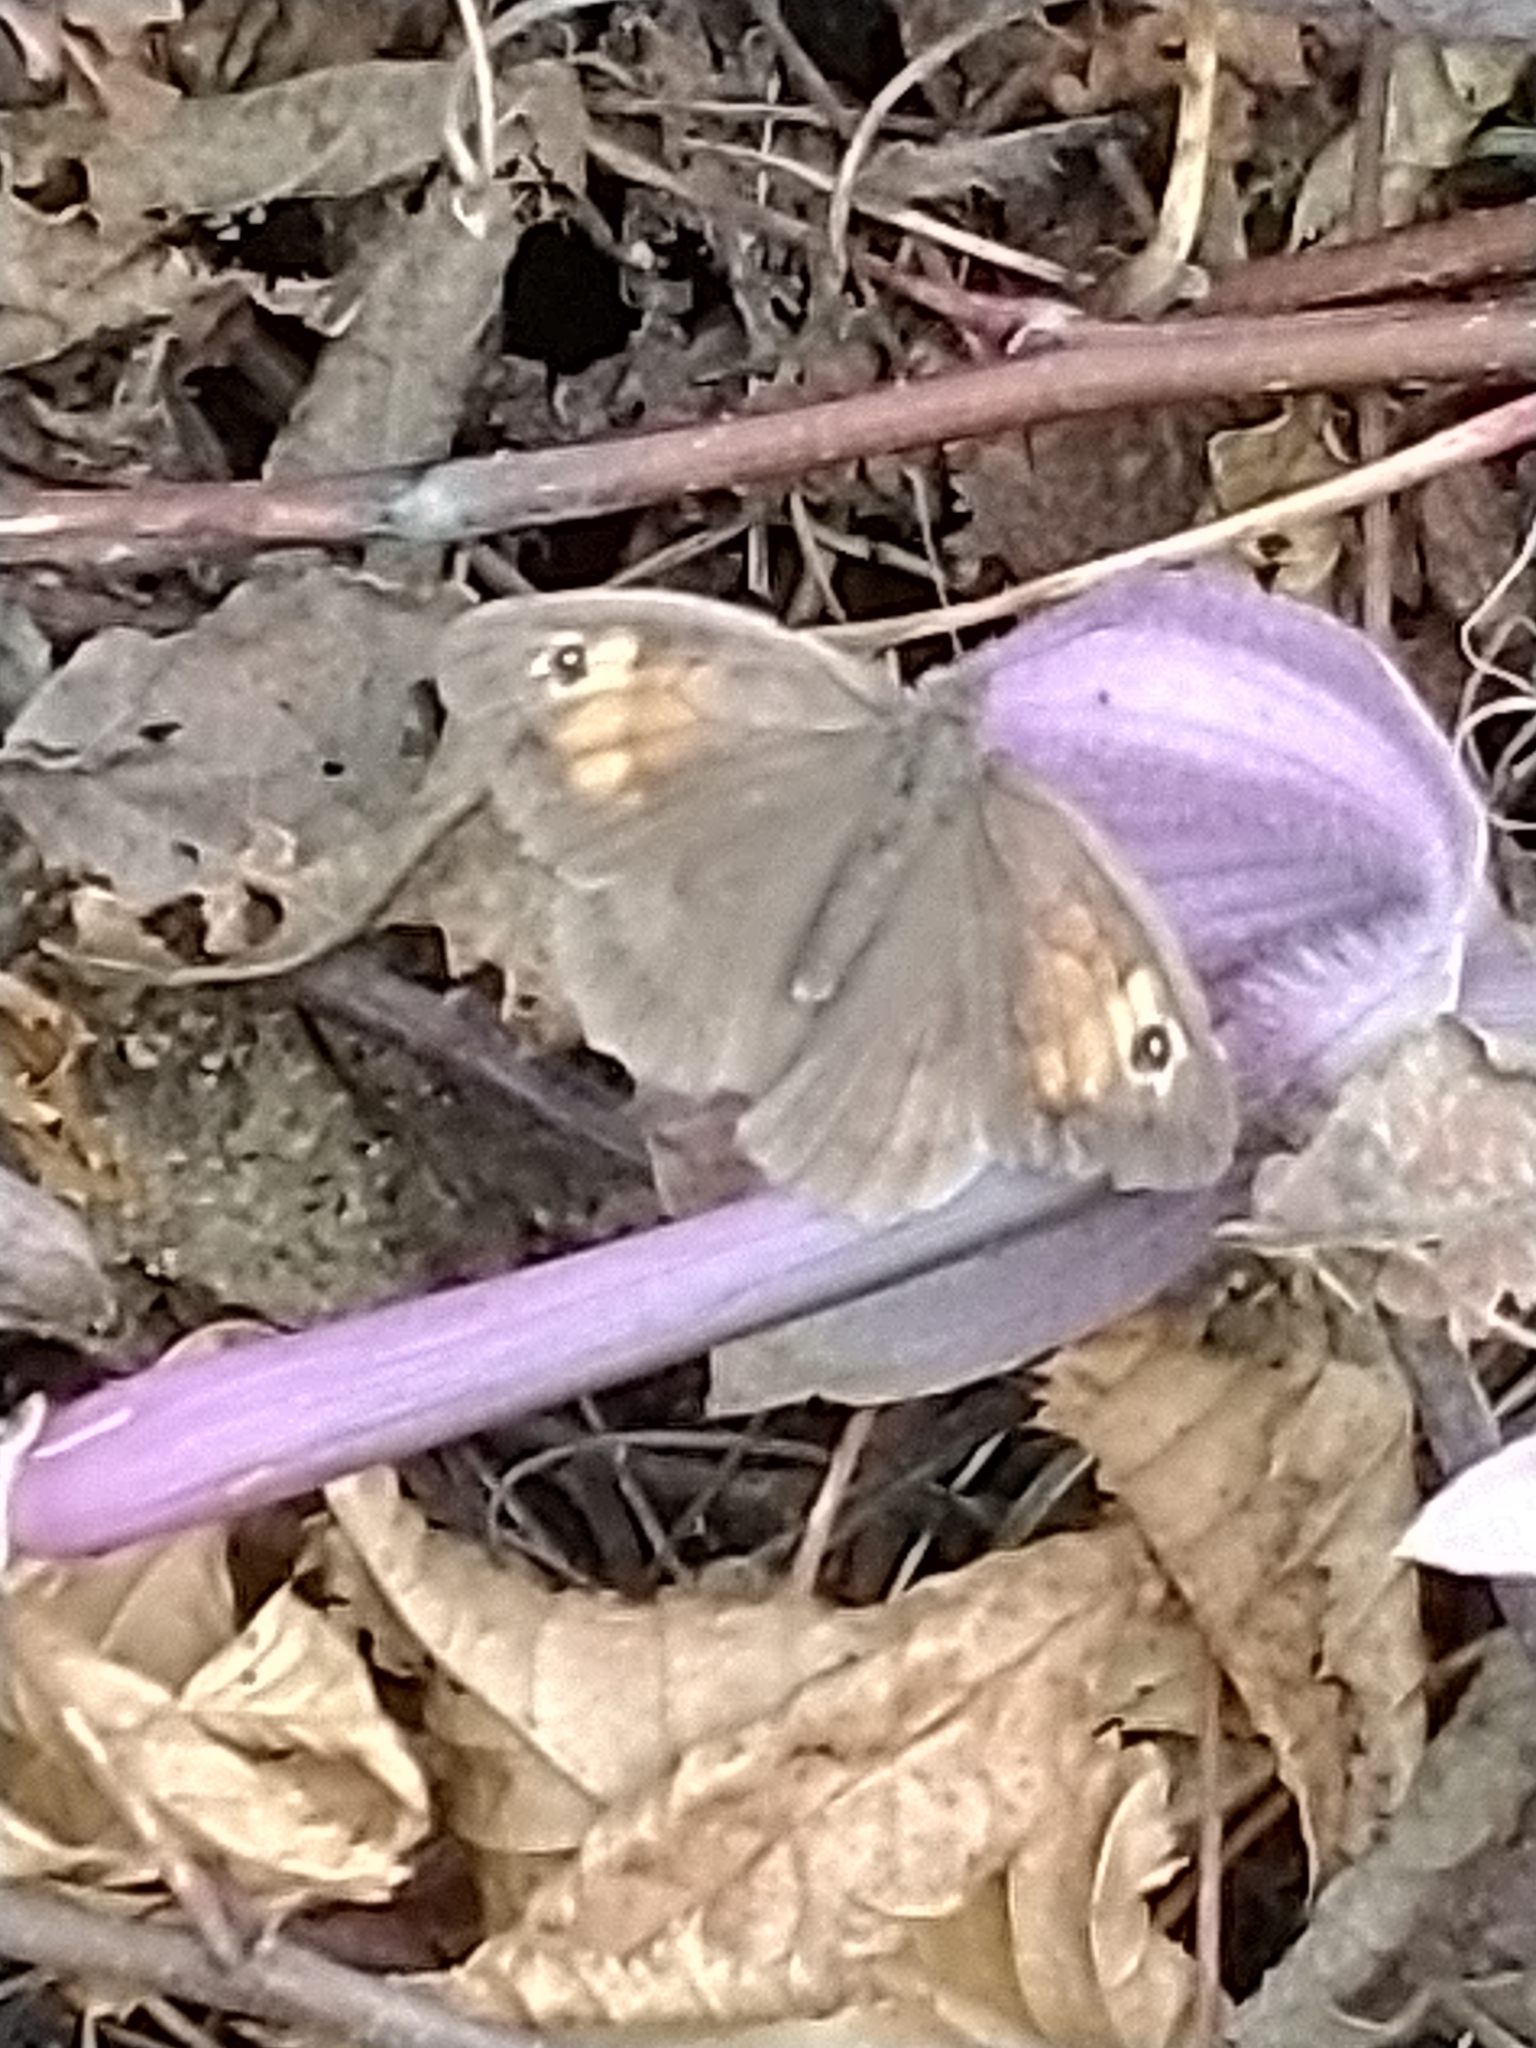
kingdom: Animalia
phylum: Arthropoda
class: Insecta
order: Lepidoptera
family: Nymphalidae
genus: Maniola
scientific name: Maniola jurtina
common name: Meadow brown
